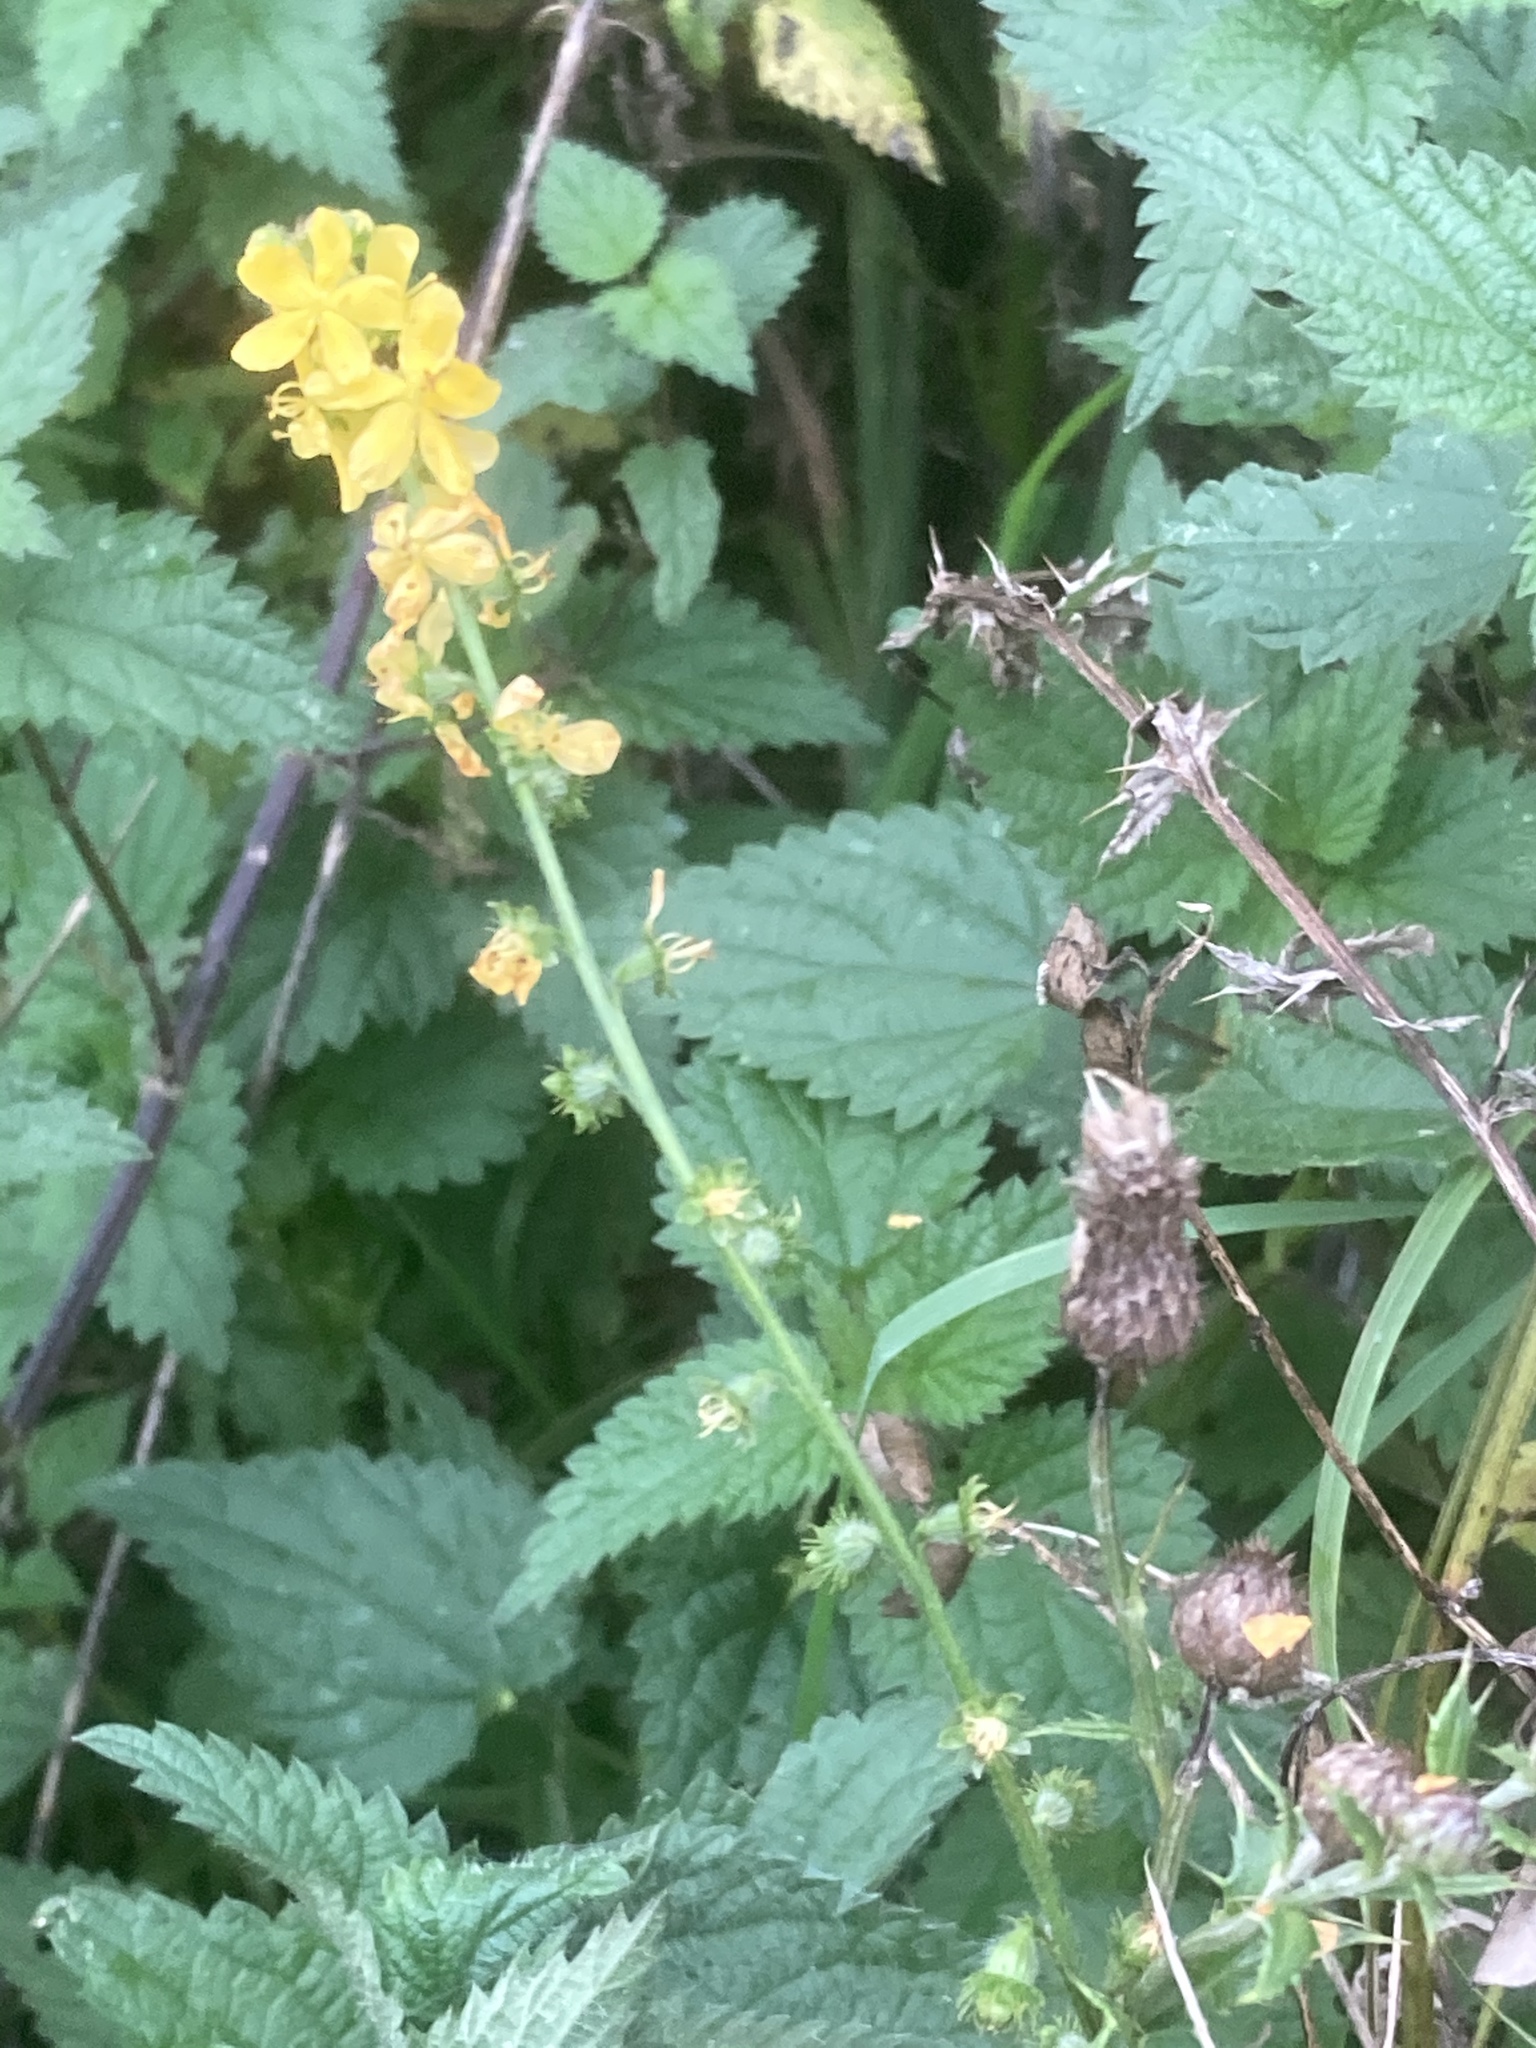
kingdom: Plantae
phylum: Tracheophyta
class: Magnoliopsida
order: Rosales
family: Rosaceae
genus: Agrimonia
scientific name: Agrimonia eupatoria
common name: Agrimony
